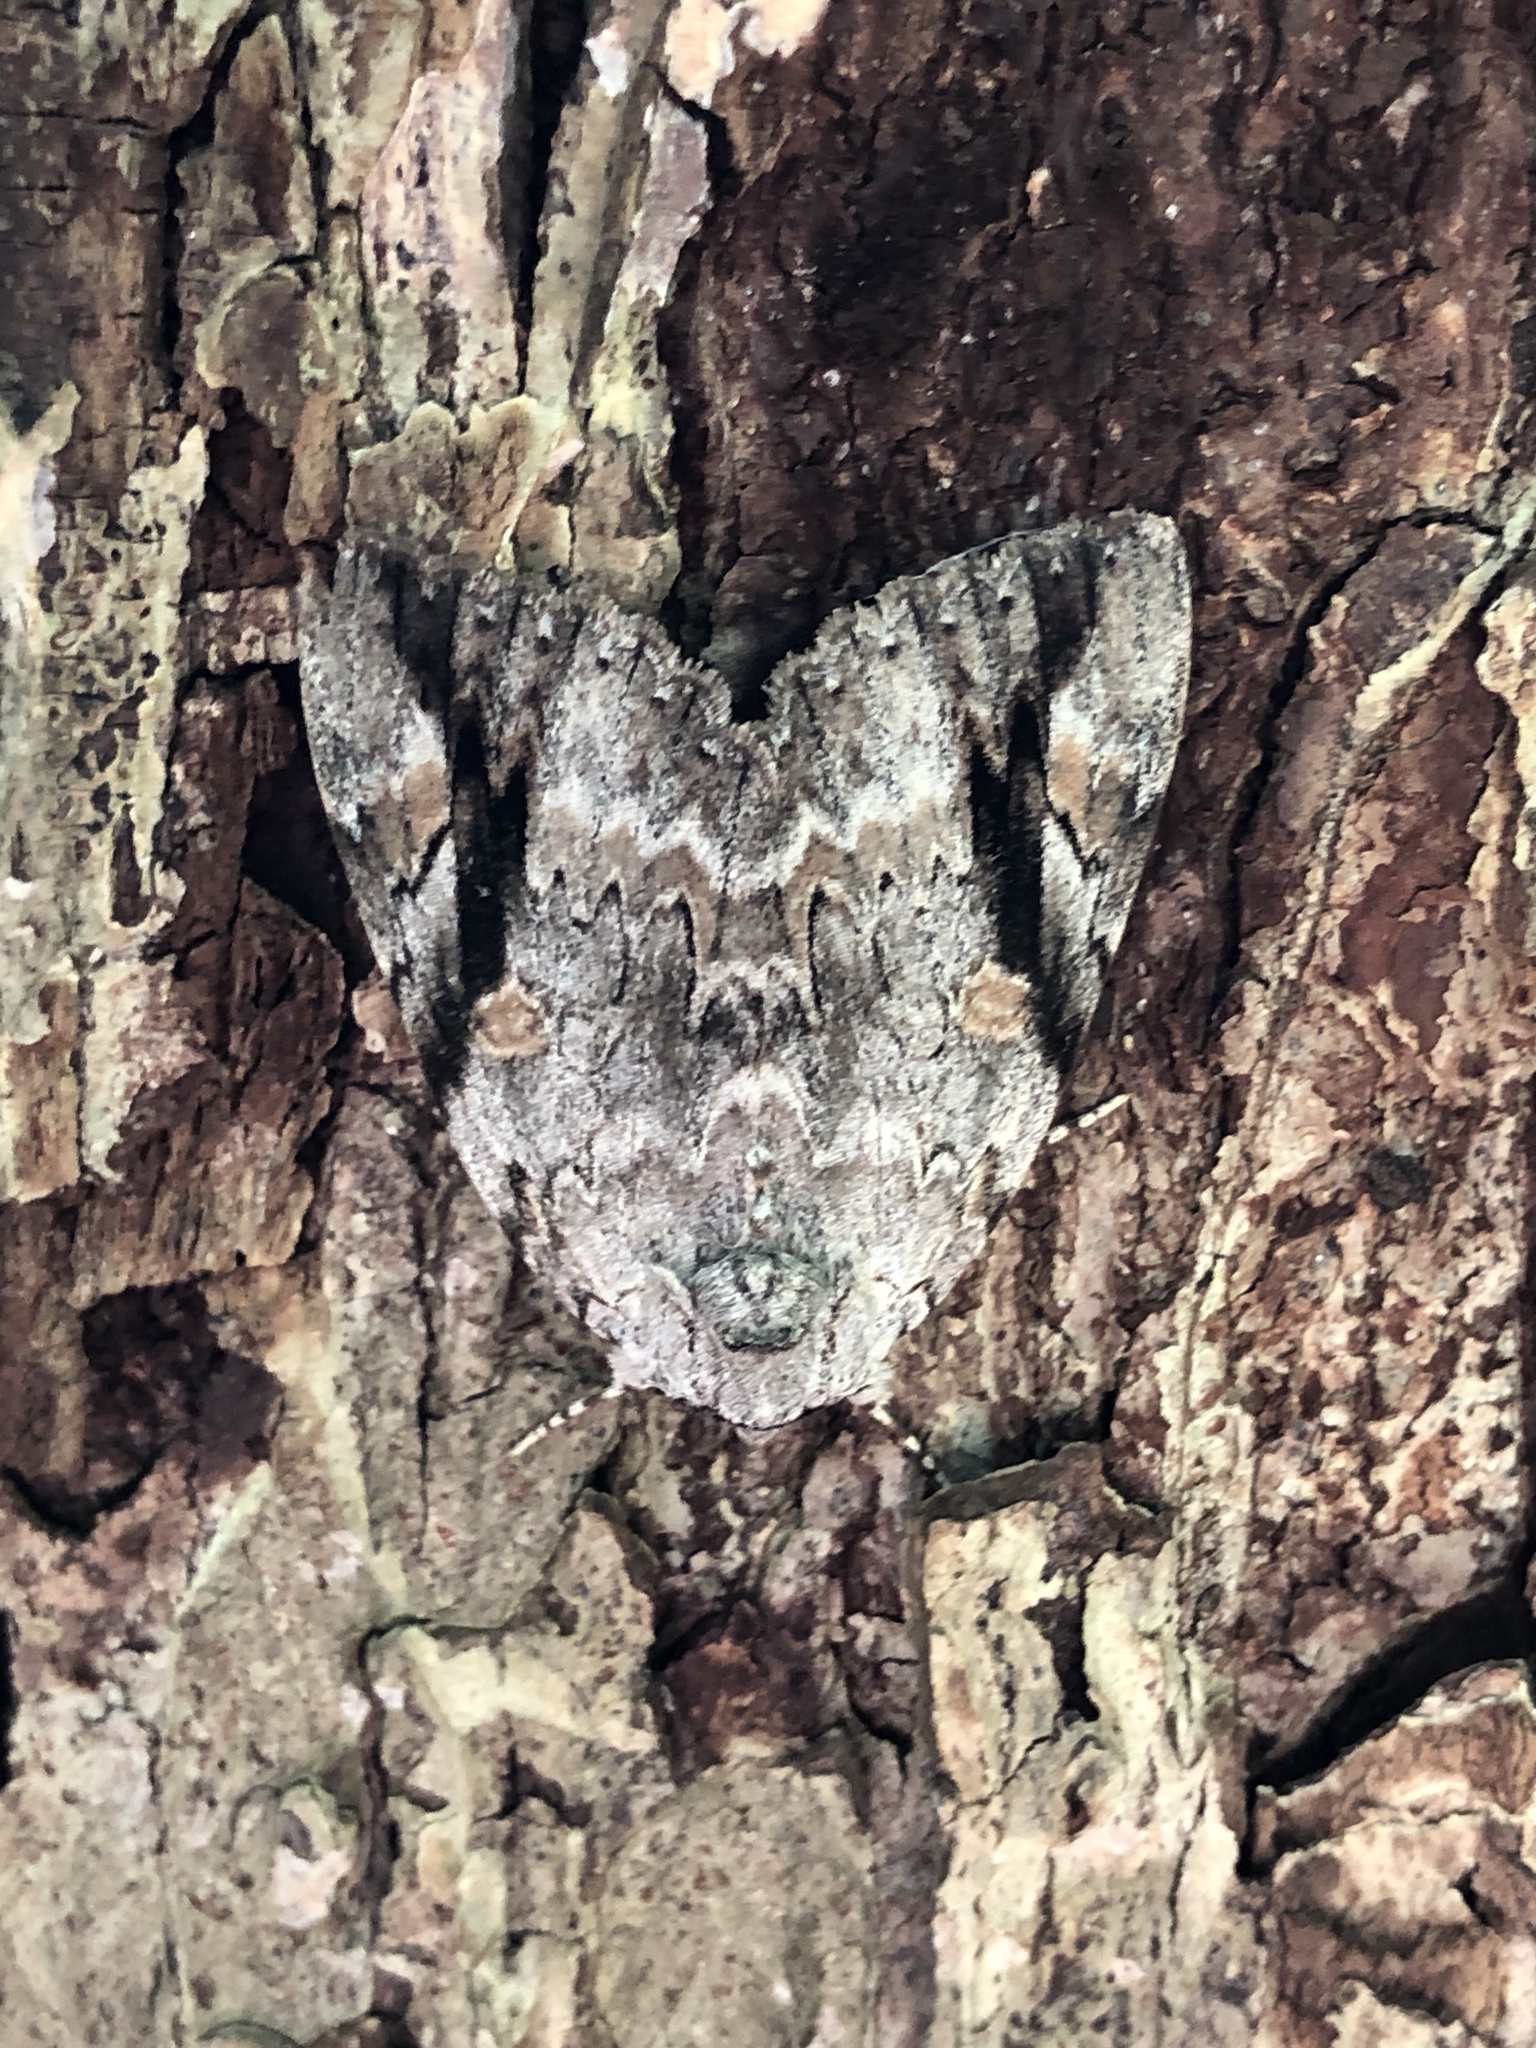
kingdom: Animalia
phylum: Arthropoda
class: Insecta
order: Lepidoptera
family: Erebidae
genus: Catocala
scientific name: Catocala maestosa
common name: Sad underwing
